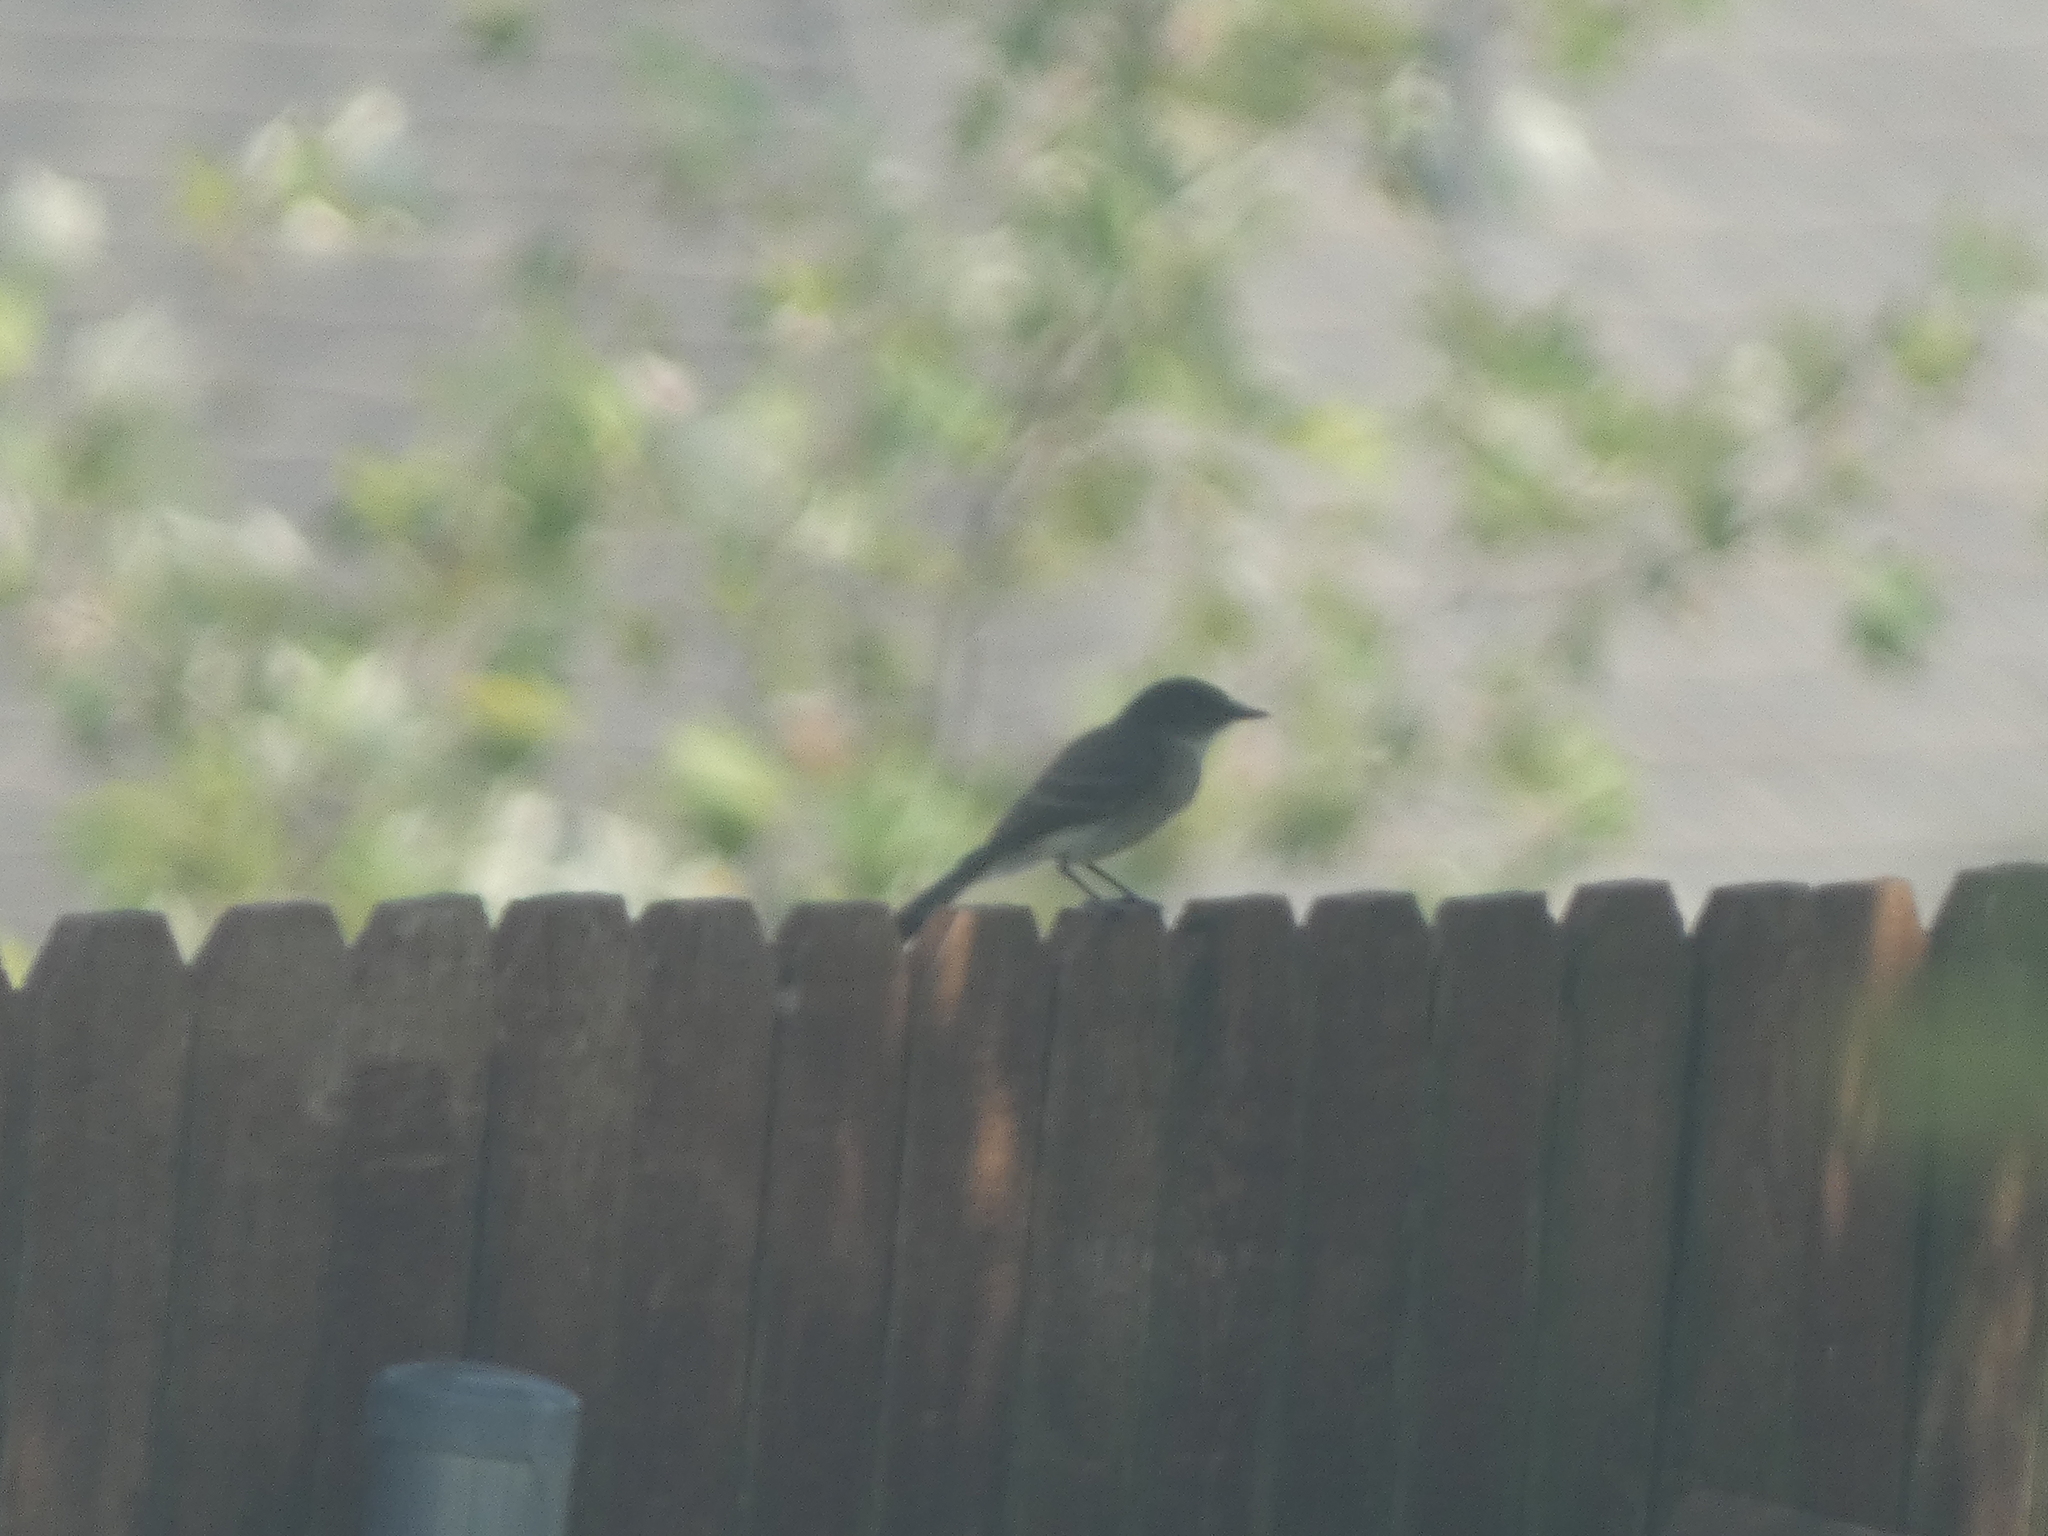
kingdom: Animalia
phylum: Chordata
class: Aves
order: Passeriformes
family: Tyrannidae
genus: Sayornis
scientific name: Sayornis phoebe
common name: Eastern phoebe
